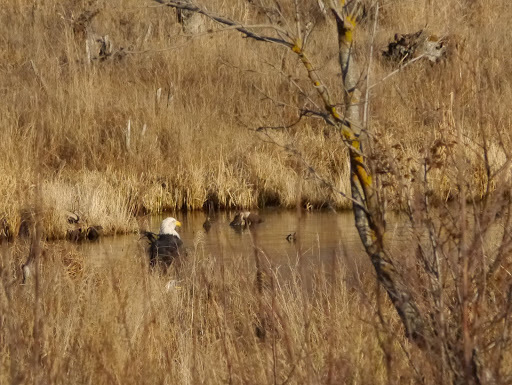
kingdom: Animalia
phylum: Chordata
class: Aves
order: Accipitriformes
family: Accipitridae
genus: Haliaeetus
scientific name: Haliaeetus leucocephalus
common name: Bald eagle
